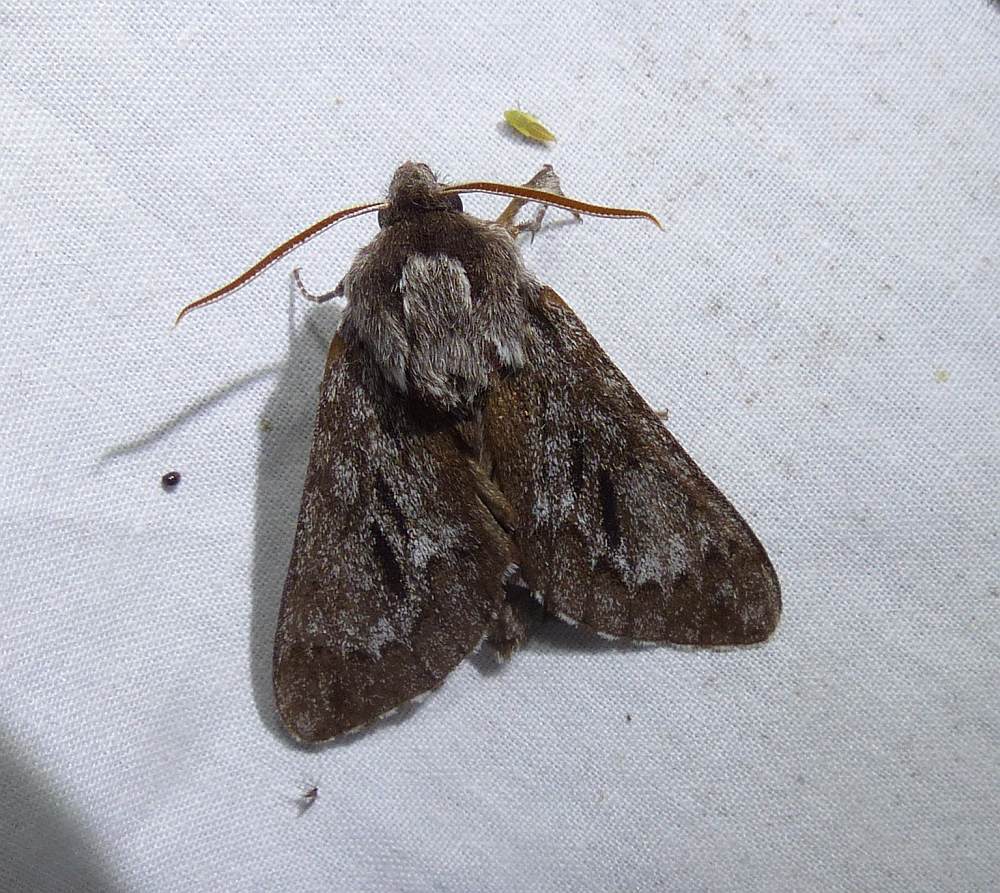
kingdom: Animalia
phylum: Arthropoda
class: Insecta
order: Lepidoptera
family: Sphingidae
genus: Lapara
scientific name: Lapara bombycoides
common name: Northern pine sphinx
